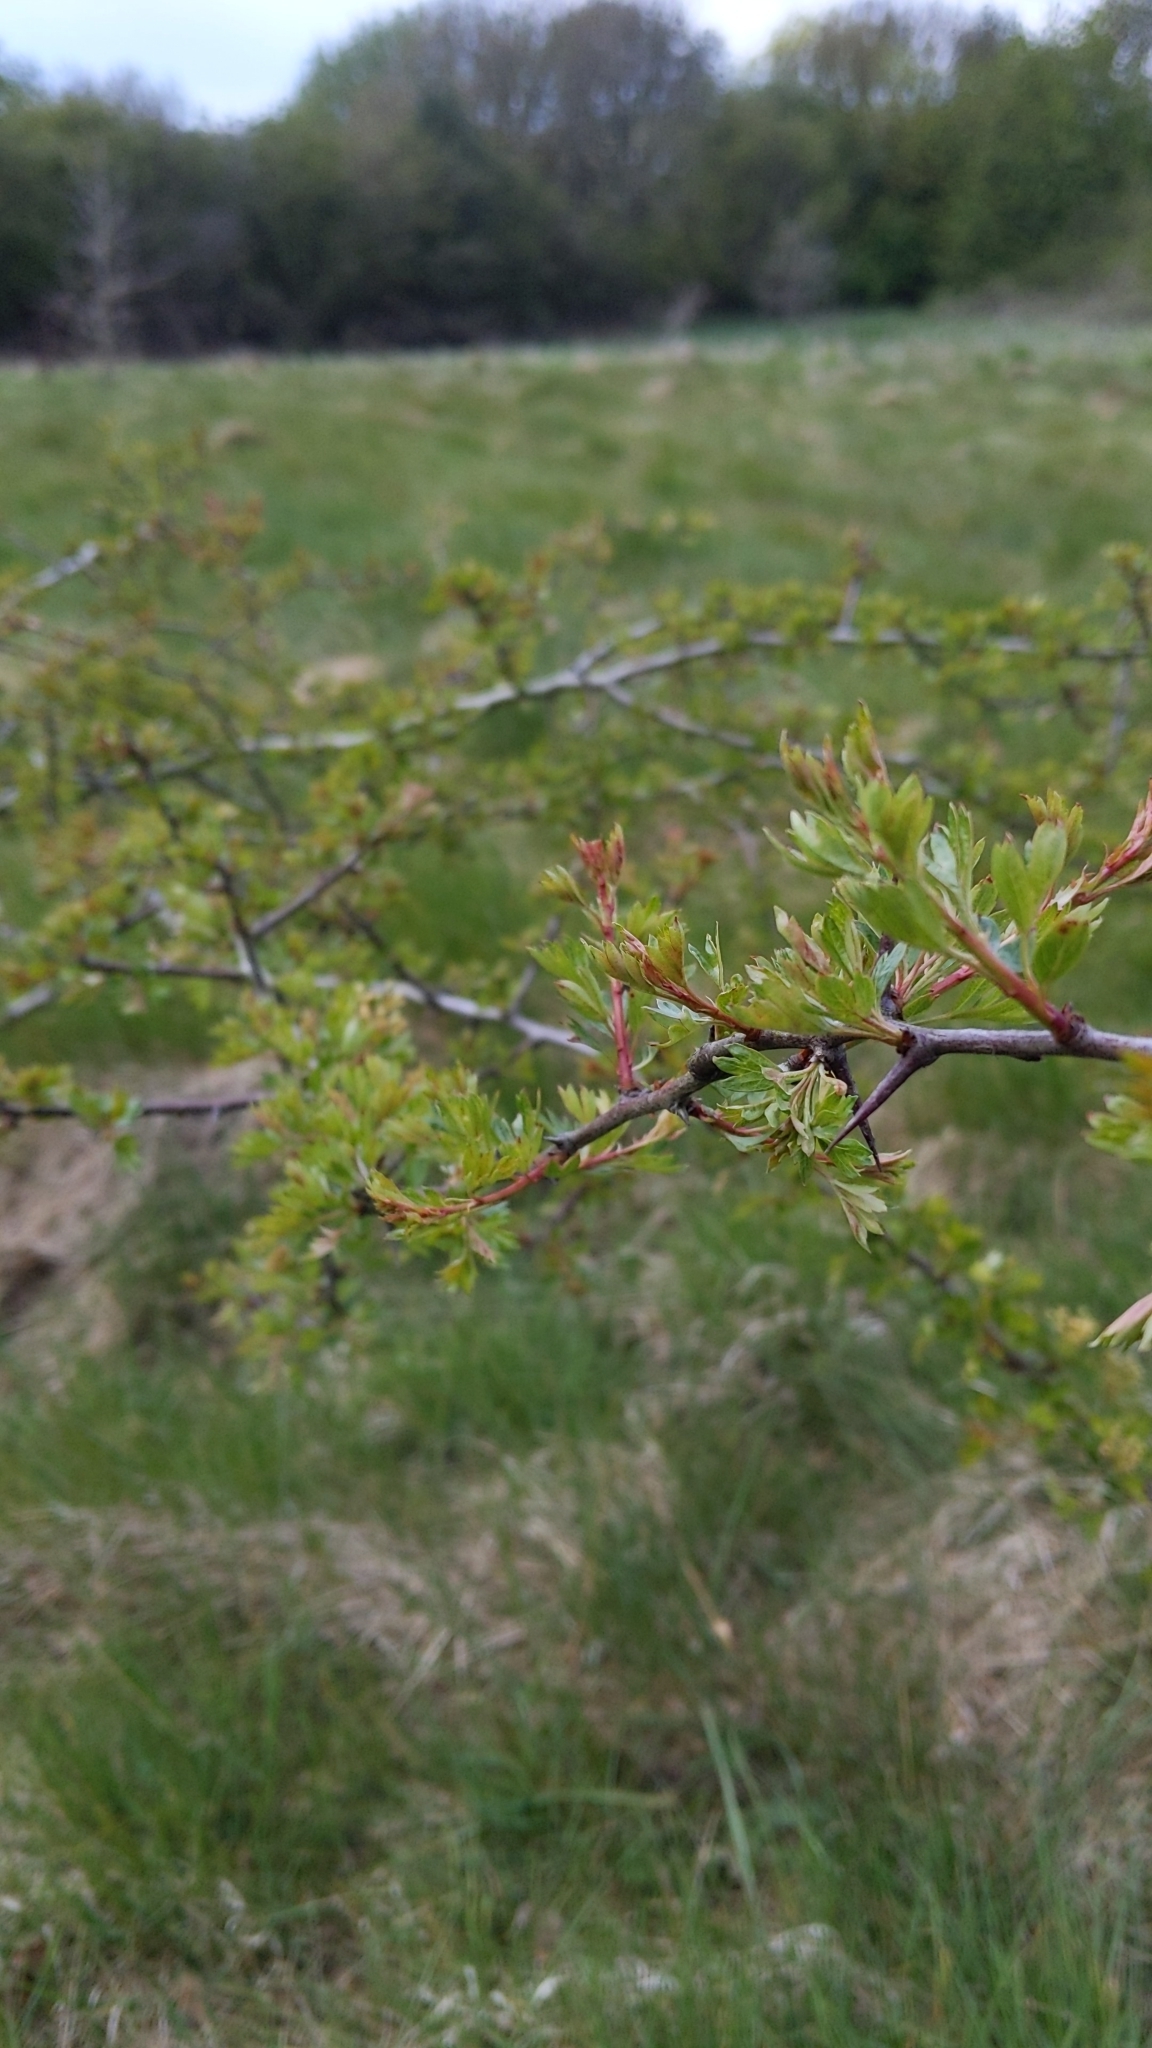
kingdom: Plantae
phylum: Tracheophyta
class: Magnoliopsida
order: Rosales
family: Rosaceae
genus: Crataegus
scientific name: Crataegus monogyna
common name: Hawthorn
